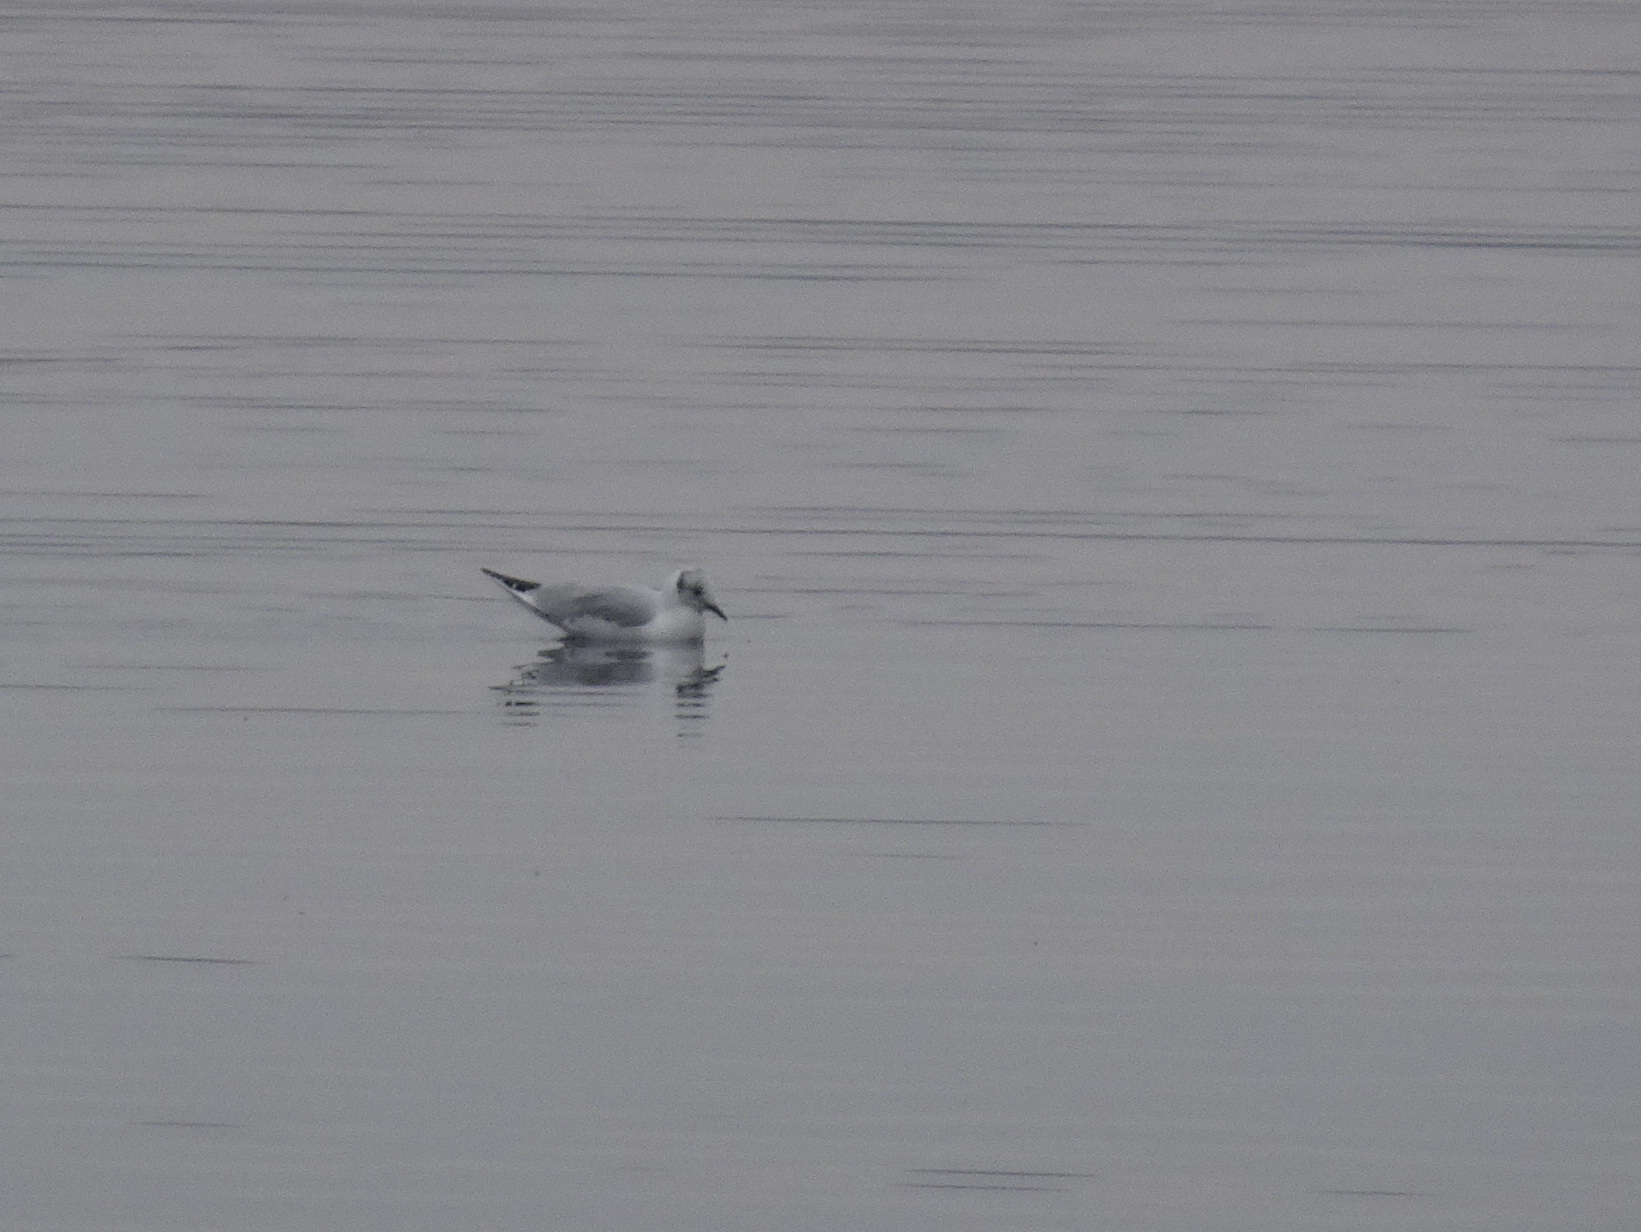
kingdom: Animalia
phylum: Chordata
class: Aves
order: Charadriiformes
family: Laridae
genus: Chroicocephalus
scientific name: Chroicocephalus philadelphia
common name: Bonaparte's gull
